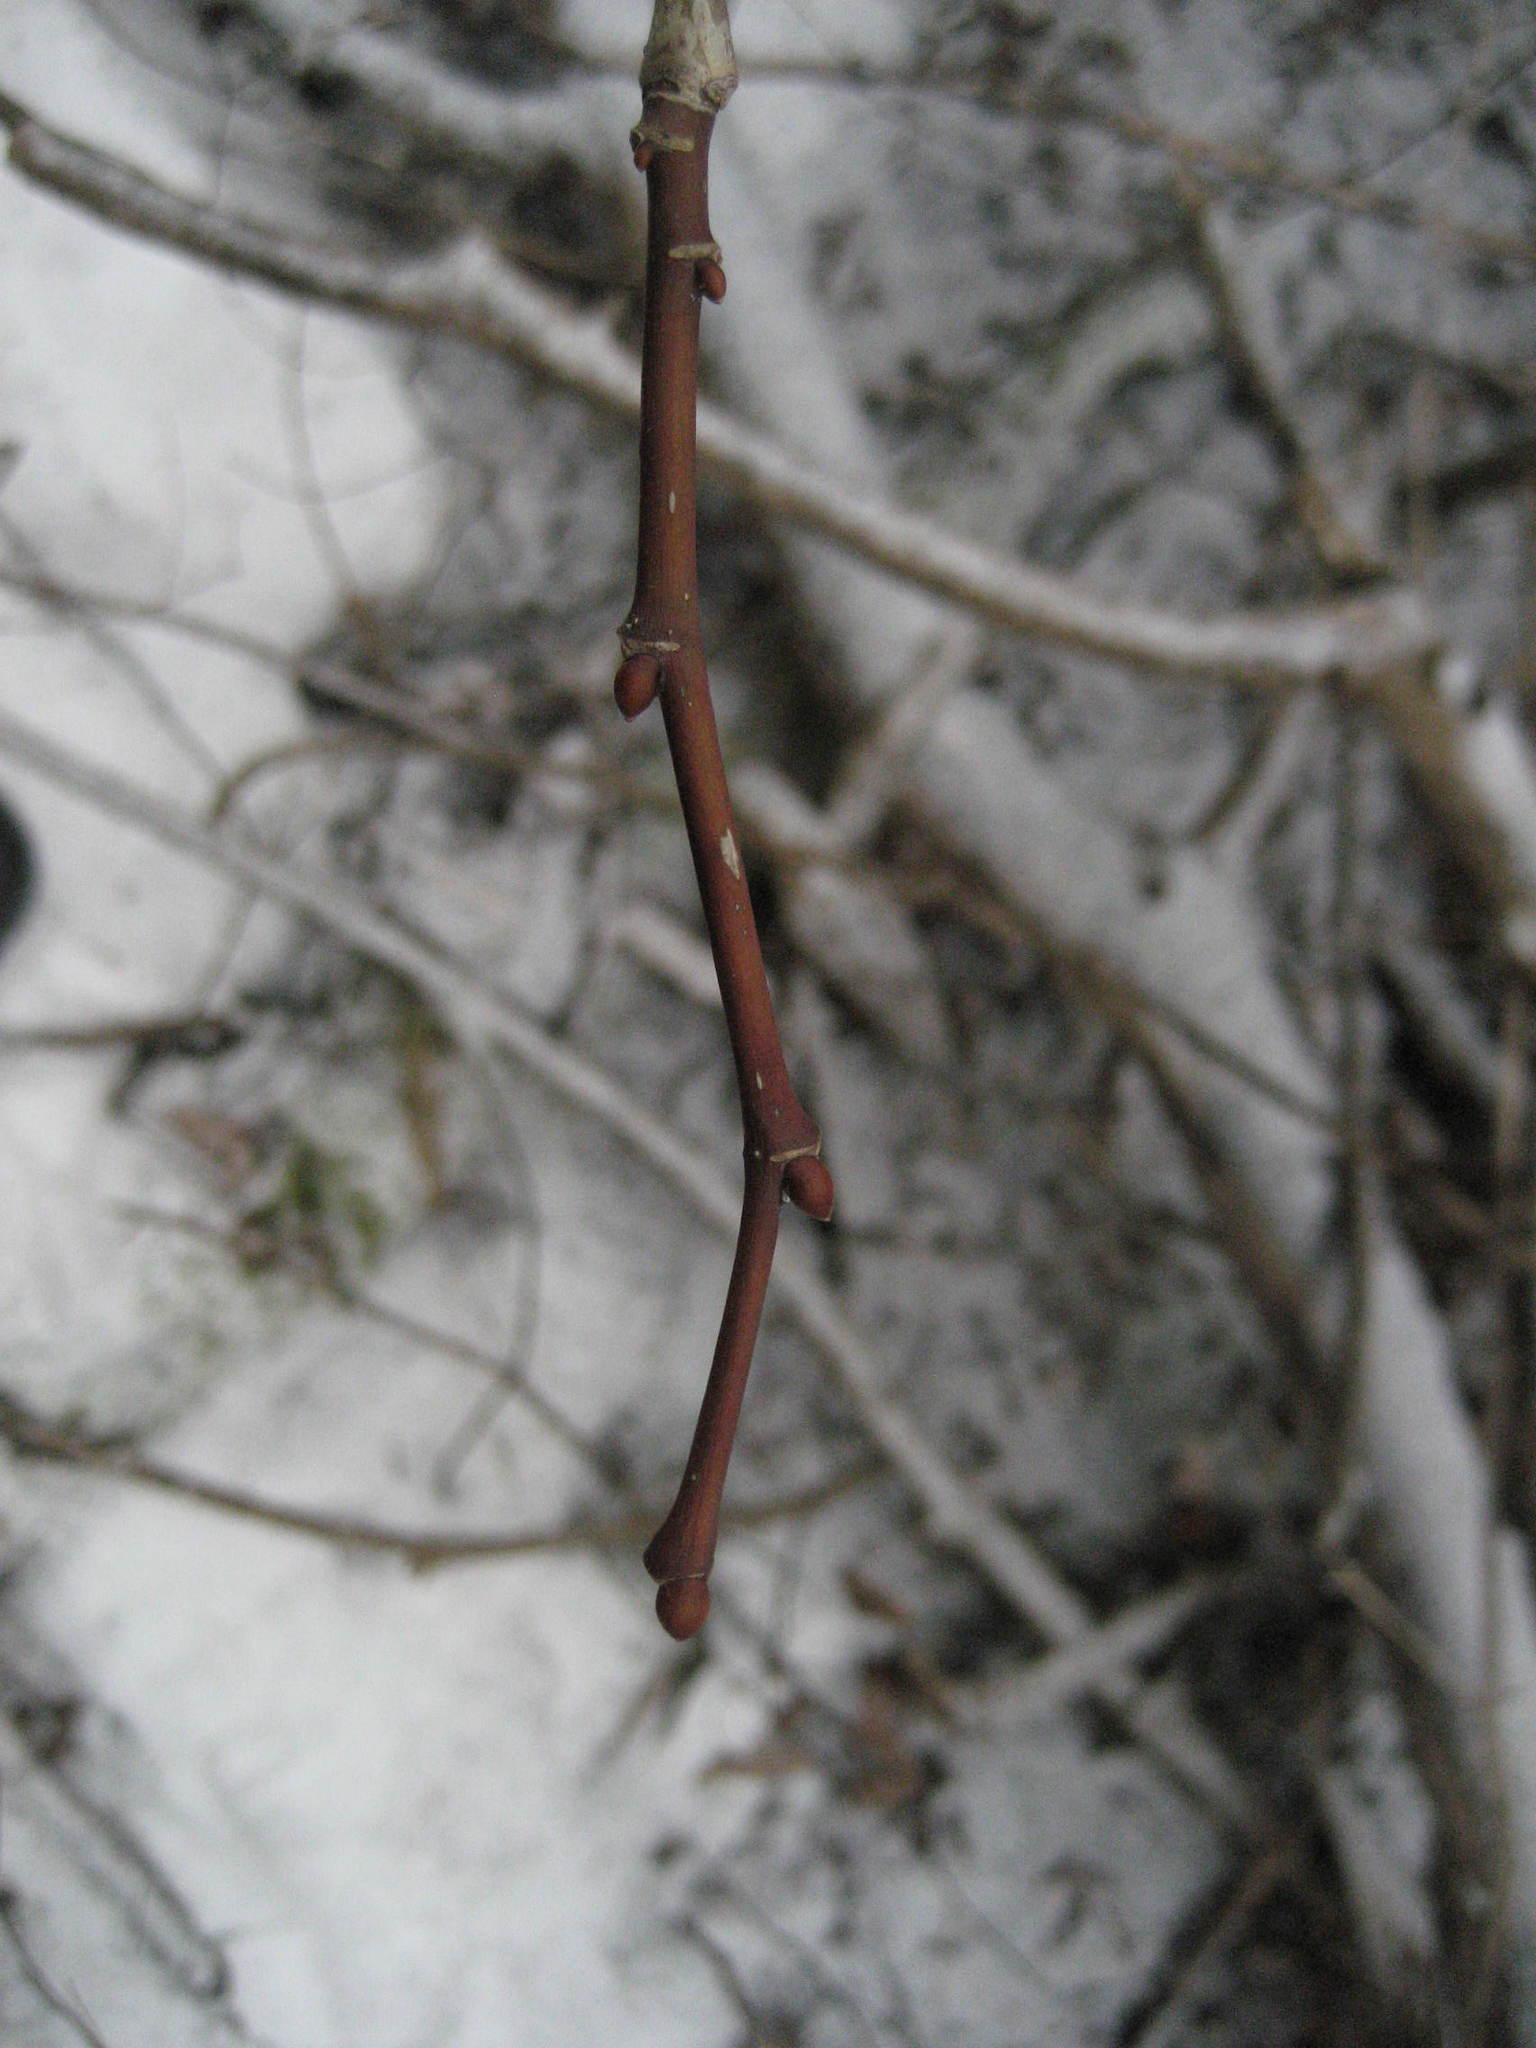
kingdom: Plantae
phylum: Tracheophyta
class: Magnoliopsida
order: Malvales
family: Malvaceae
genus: Tilia
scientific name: Tilia americana
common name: Basswood
